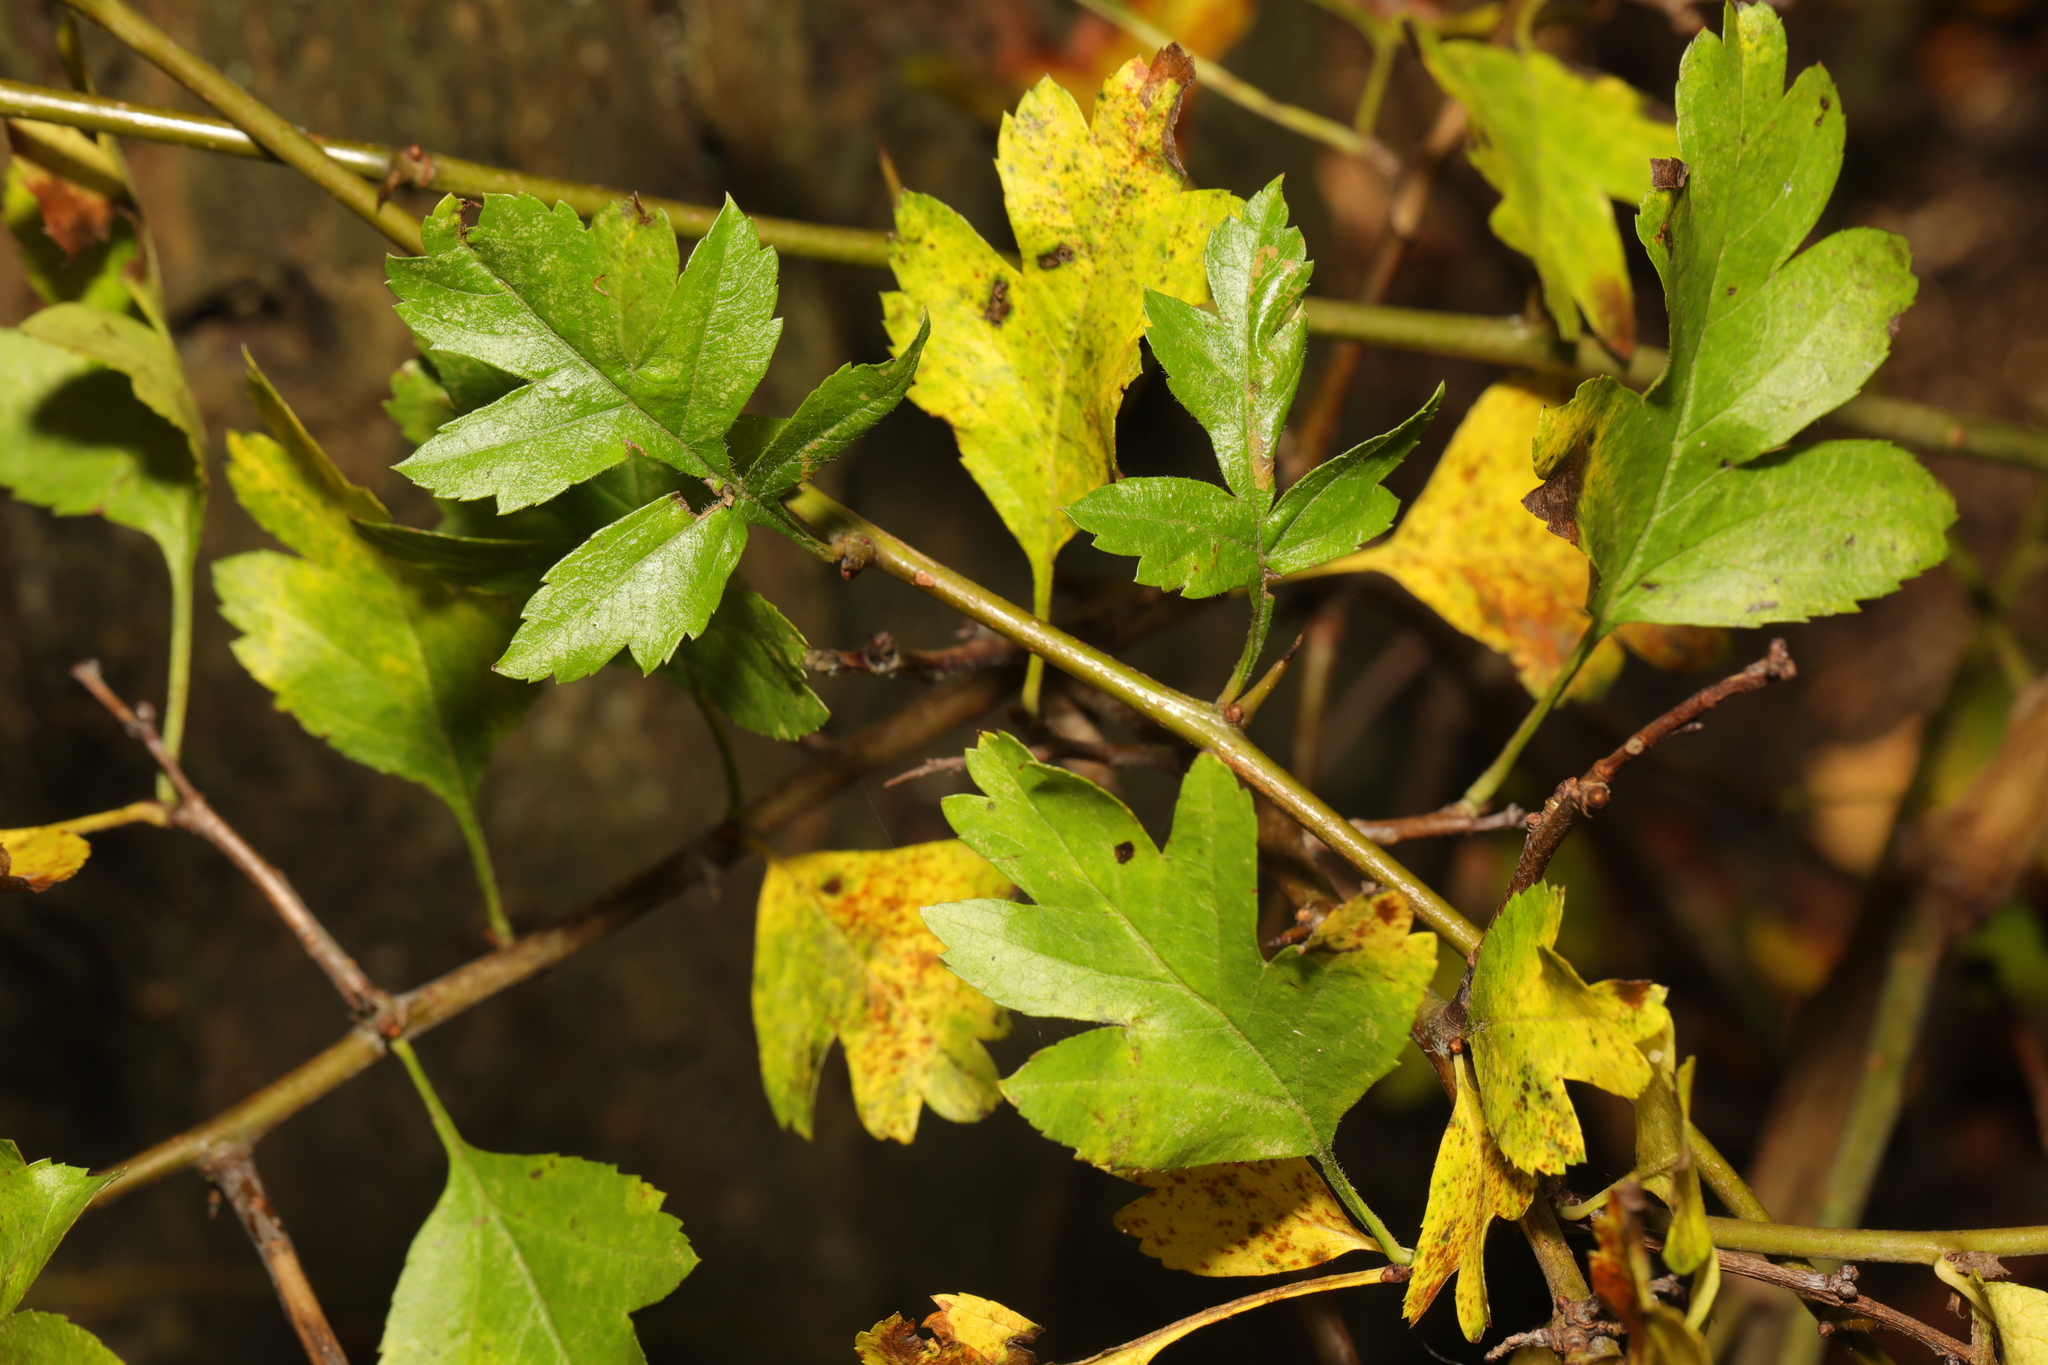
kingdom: Plantae
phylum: Tracheophyta
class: Magnoliopsida
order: Rosales
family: Rosaceae
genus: Crataegus
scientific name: Crataegus monogyna
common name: Hawthorn
